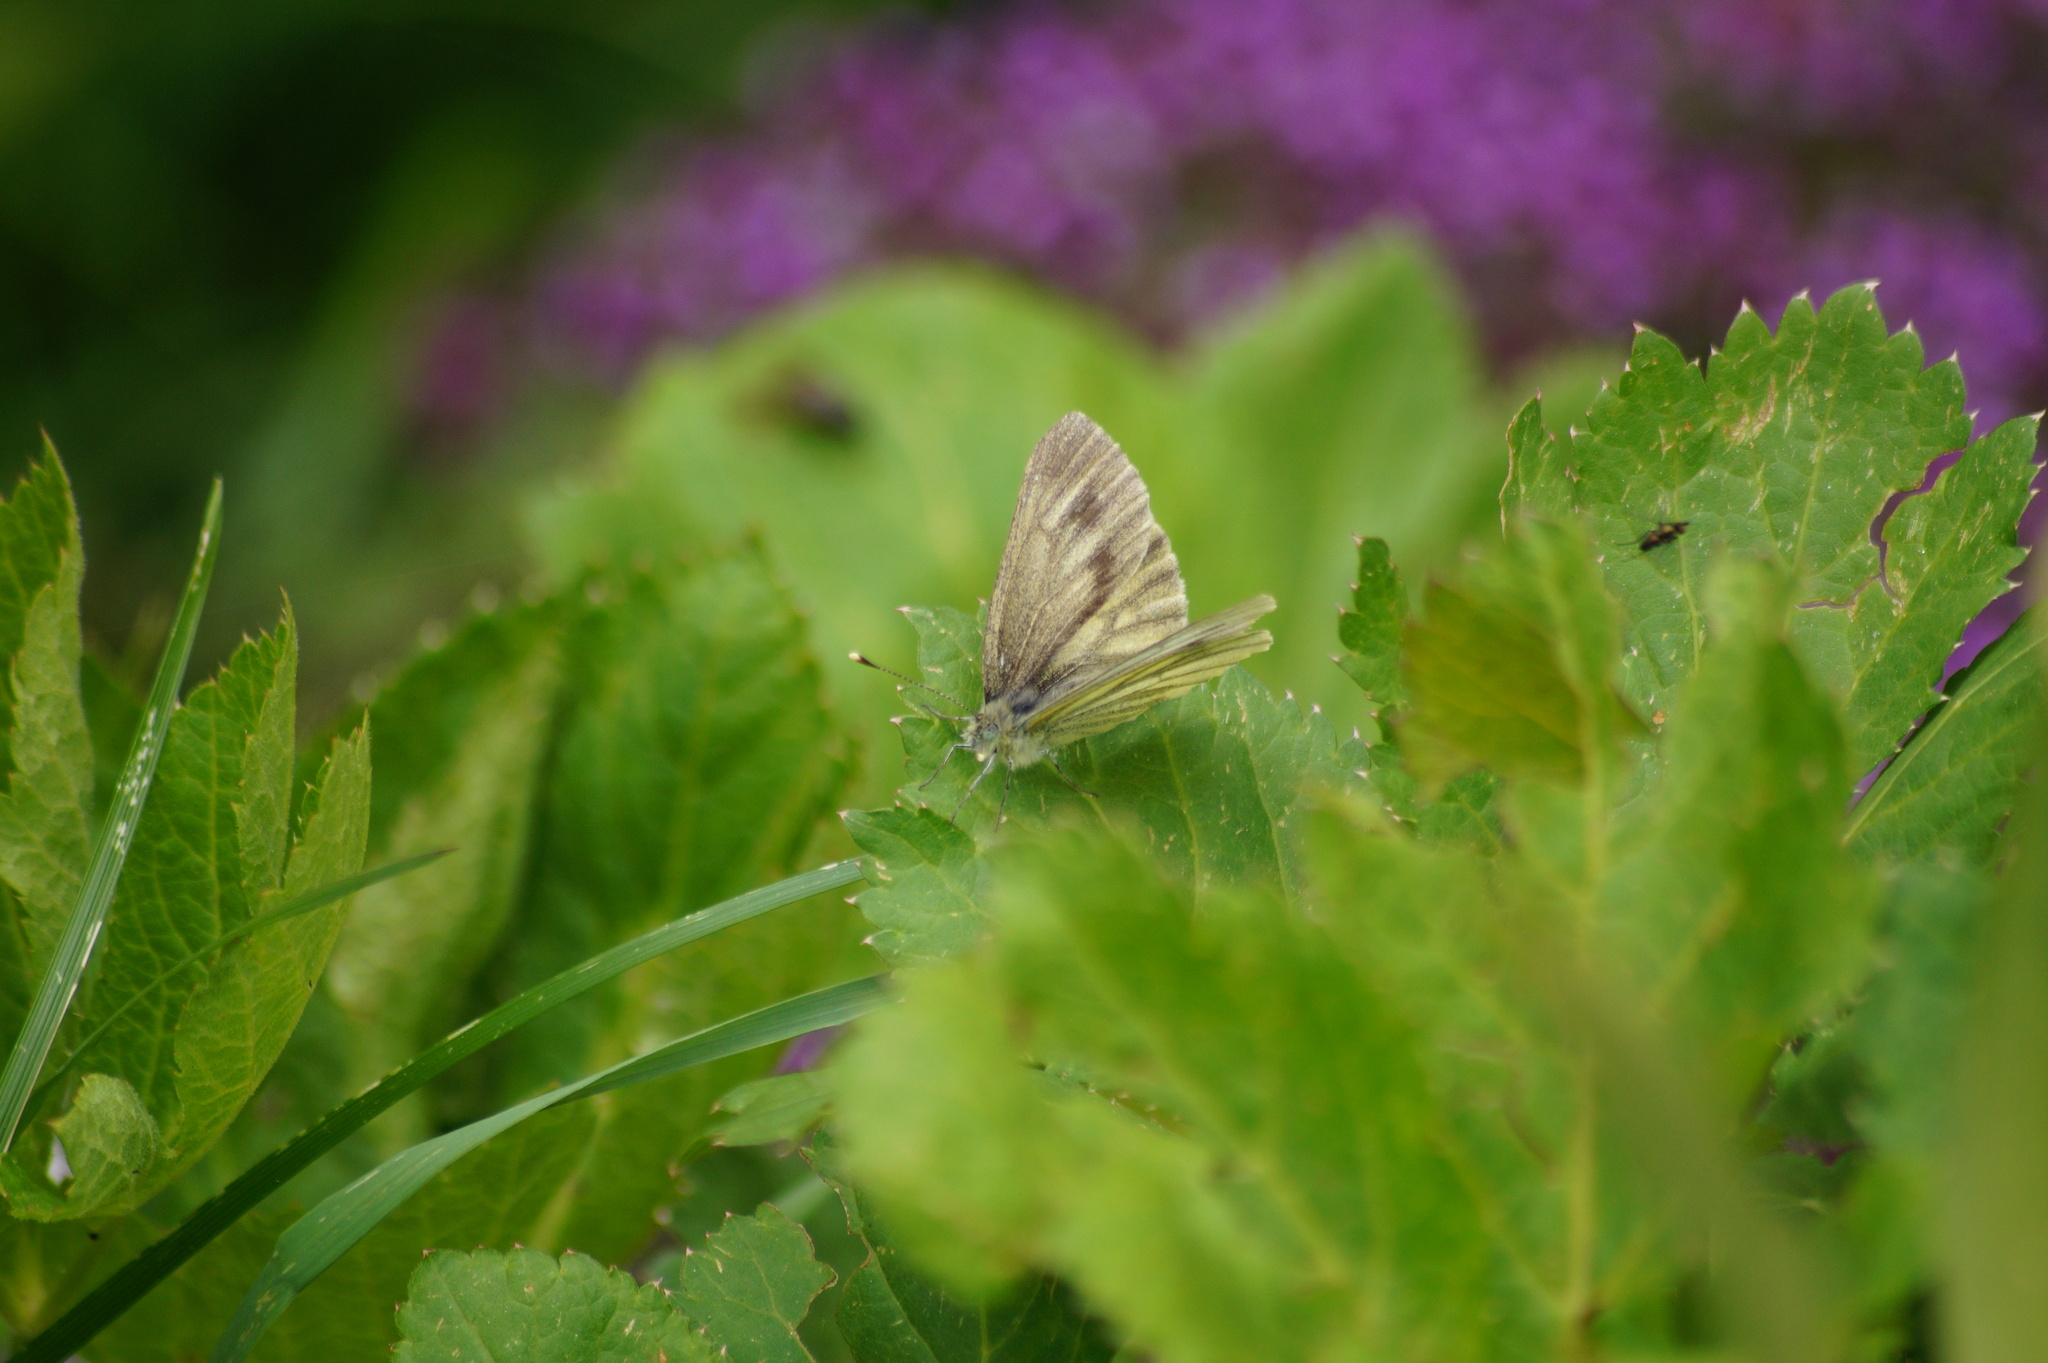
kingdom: Animalia
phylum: Arthropoda
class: Insecta
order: Lepidoptera
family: Pieridae
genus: Pieris
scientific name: Pieris bryoniae
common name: Mountain green-veined white
